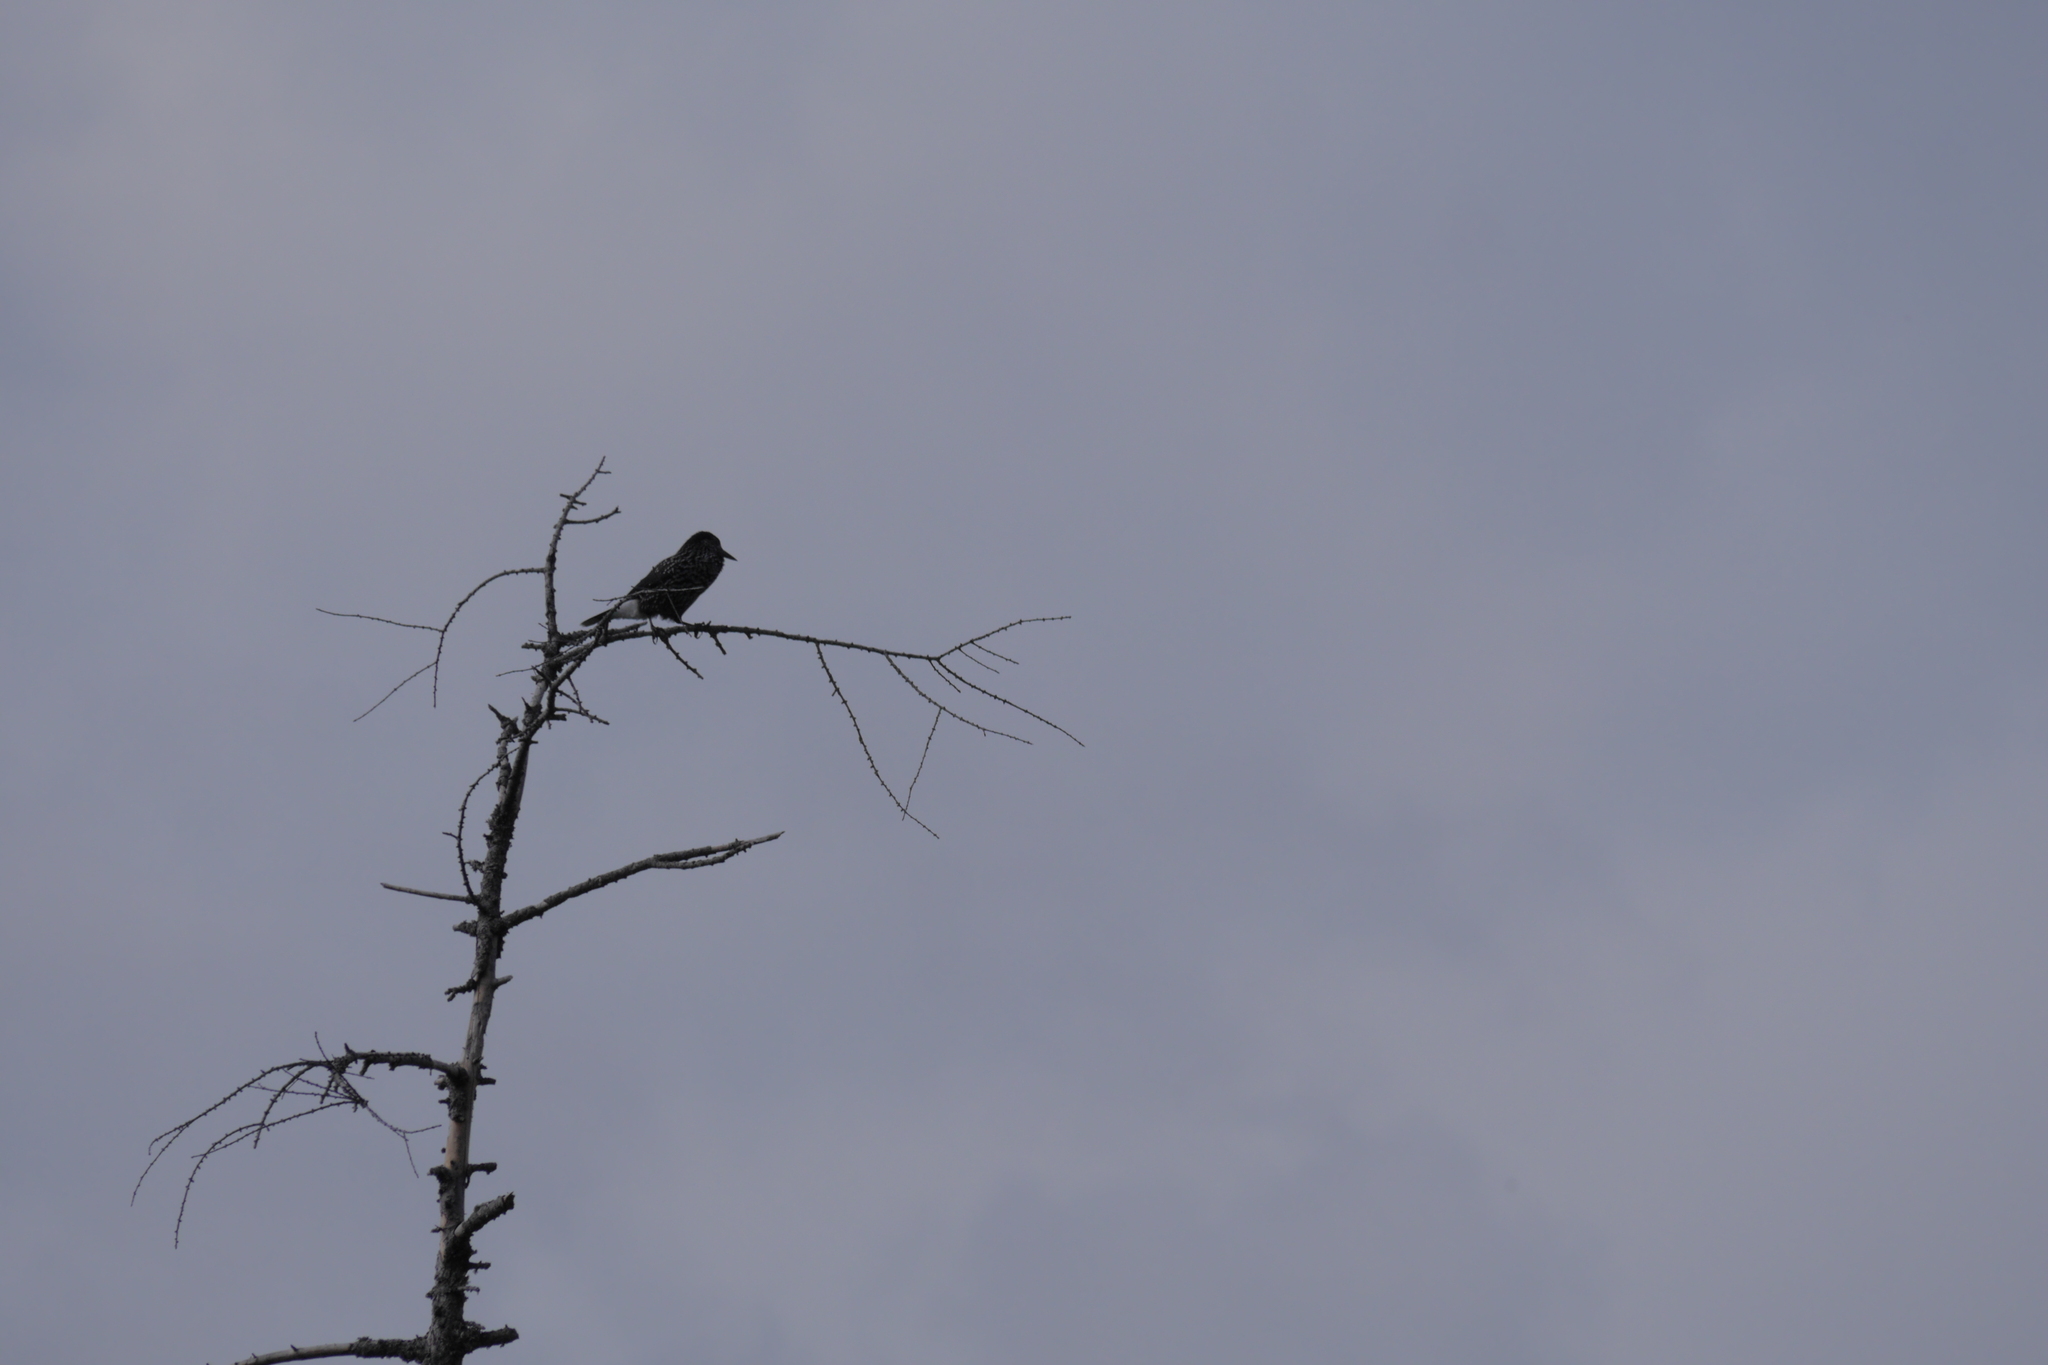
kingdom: Animalia
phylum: Chordata
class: Aves
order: Passeriformes
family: Corvidae
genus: Nucifraga
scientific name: Nucifraga caryocatactes
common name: Spotted nutcracker
